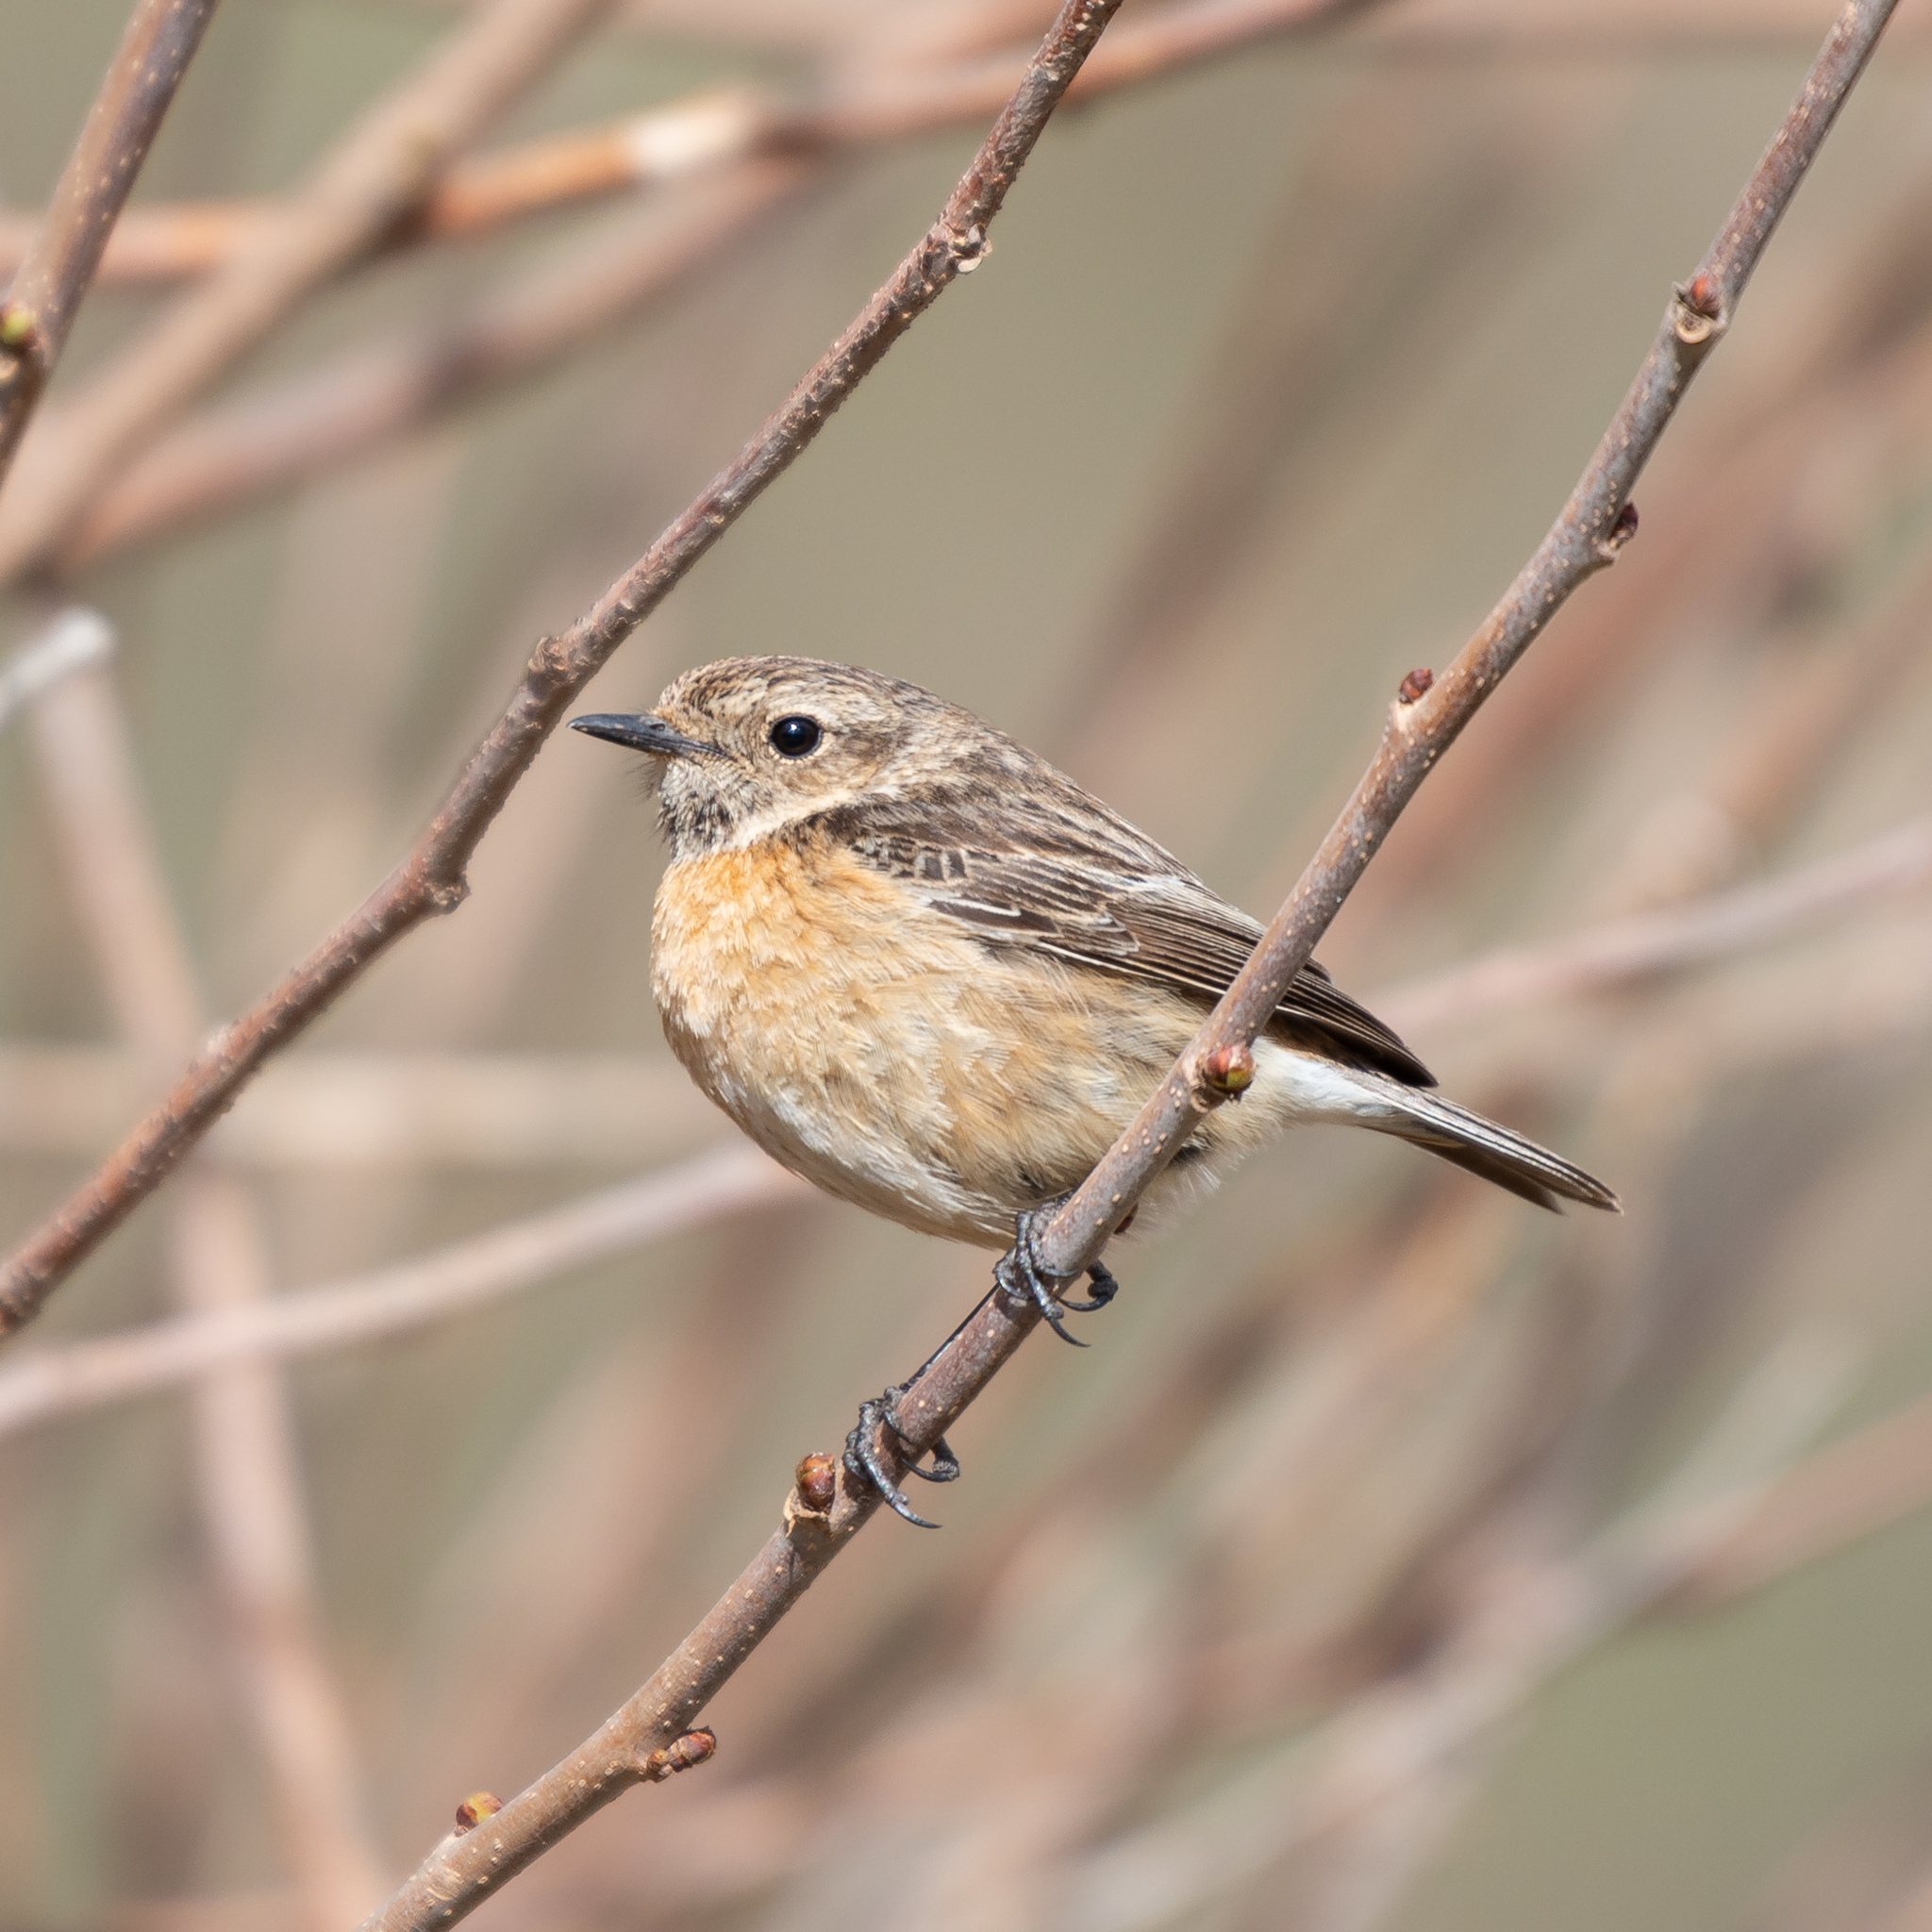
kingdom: Animalia
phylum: Chordata
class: Aves
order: Passeriformes
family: Muscicapidae
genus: Saxicola
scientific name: Saxicola rubicola
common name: European stonechat
